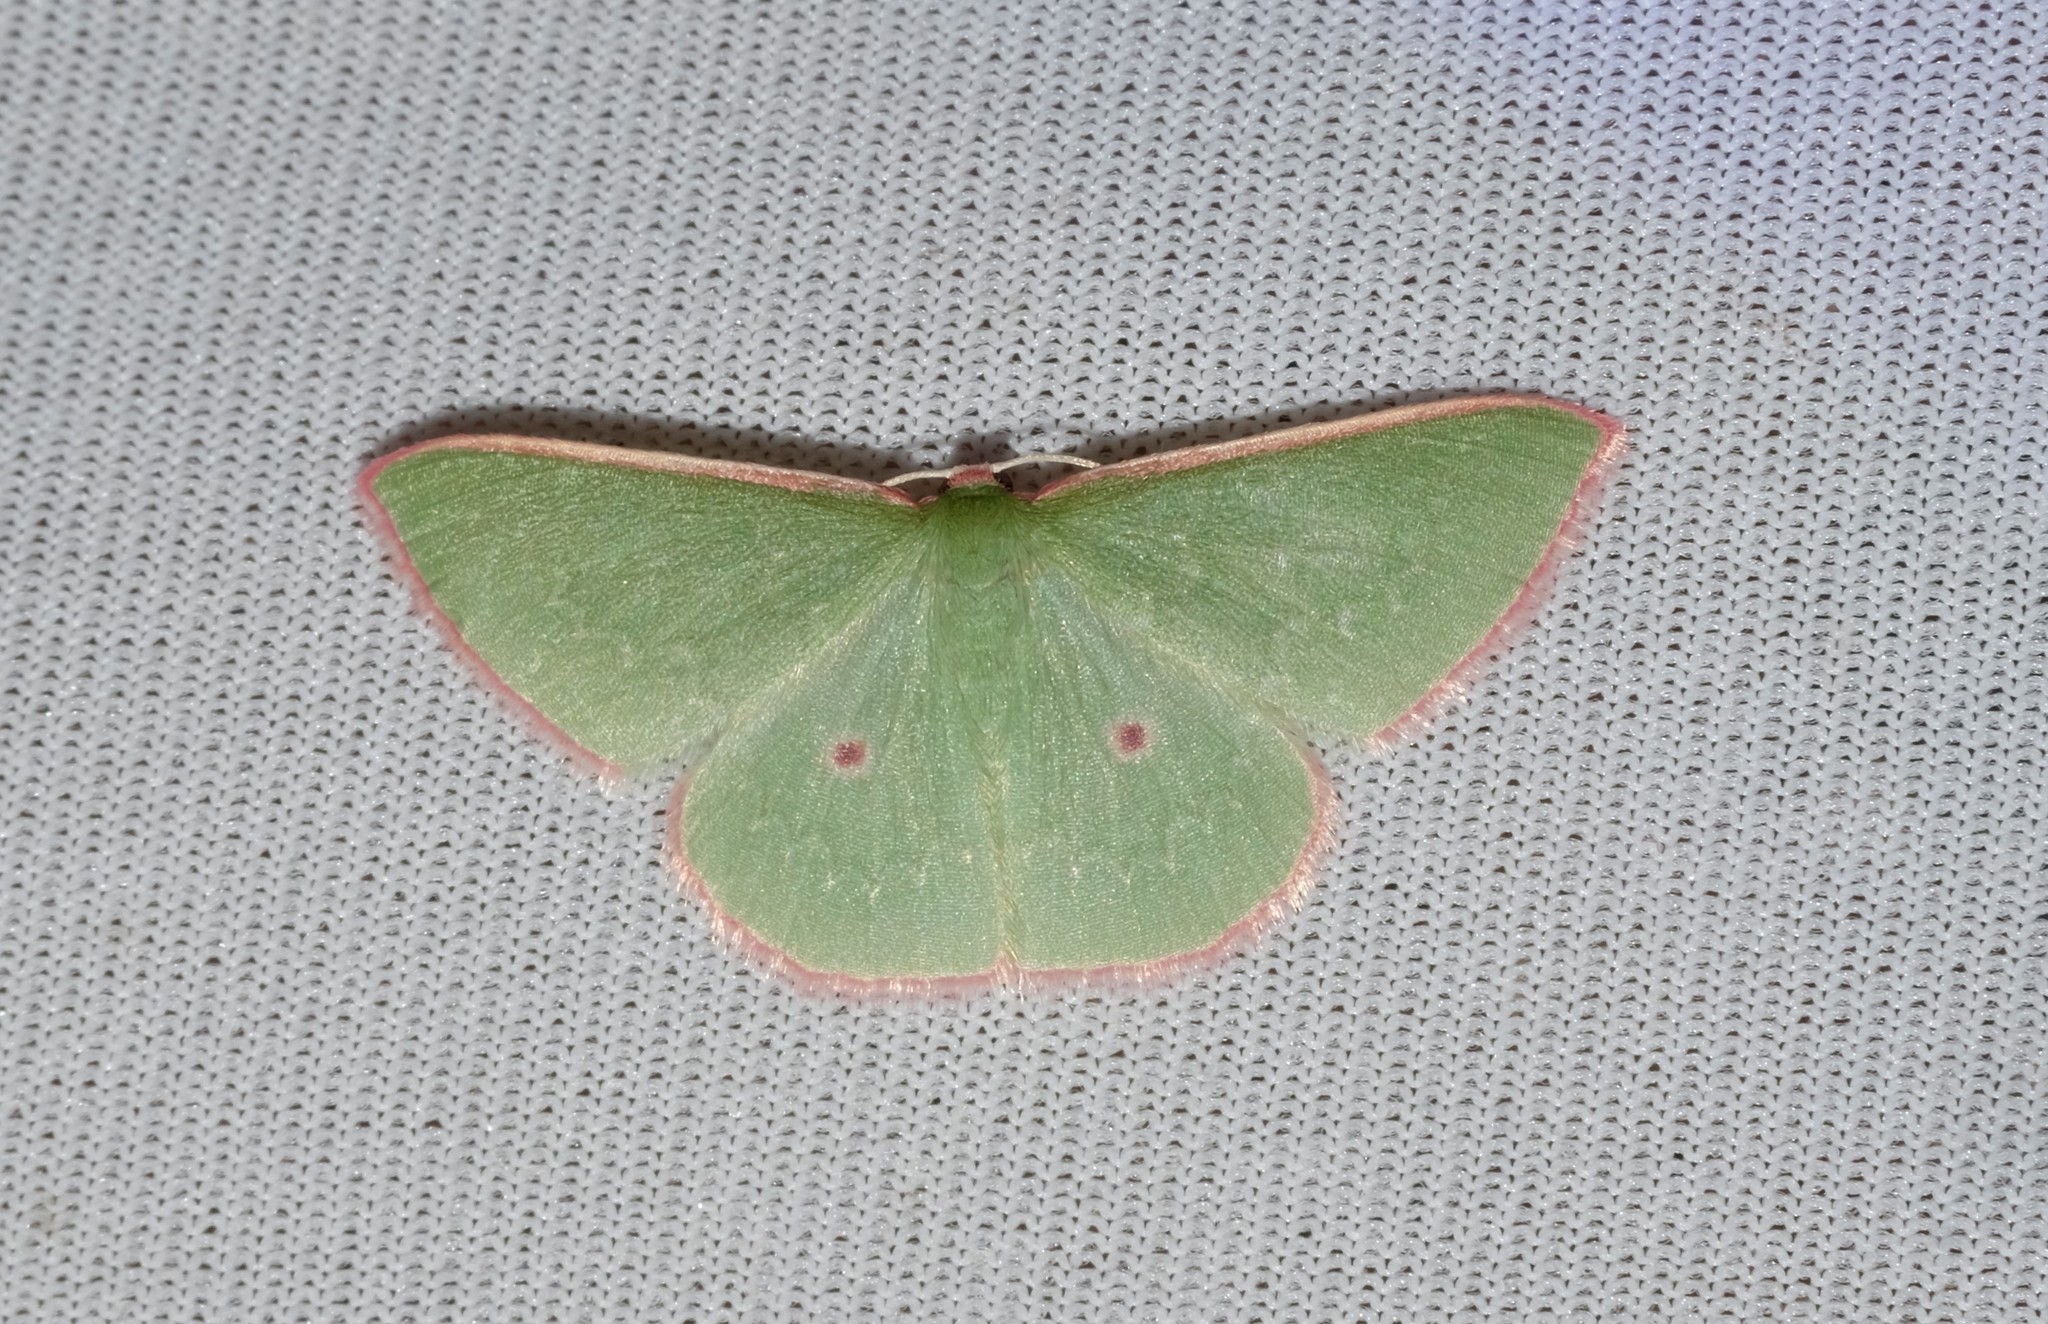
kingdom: Animalia
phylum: Arthropoda
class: Insecta
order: Lepidoptera
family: Geometridae
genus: Chlorocoma
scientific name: Chlorocoma cadmaria
